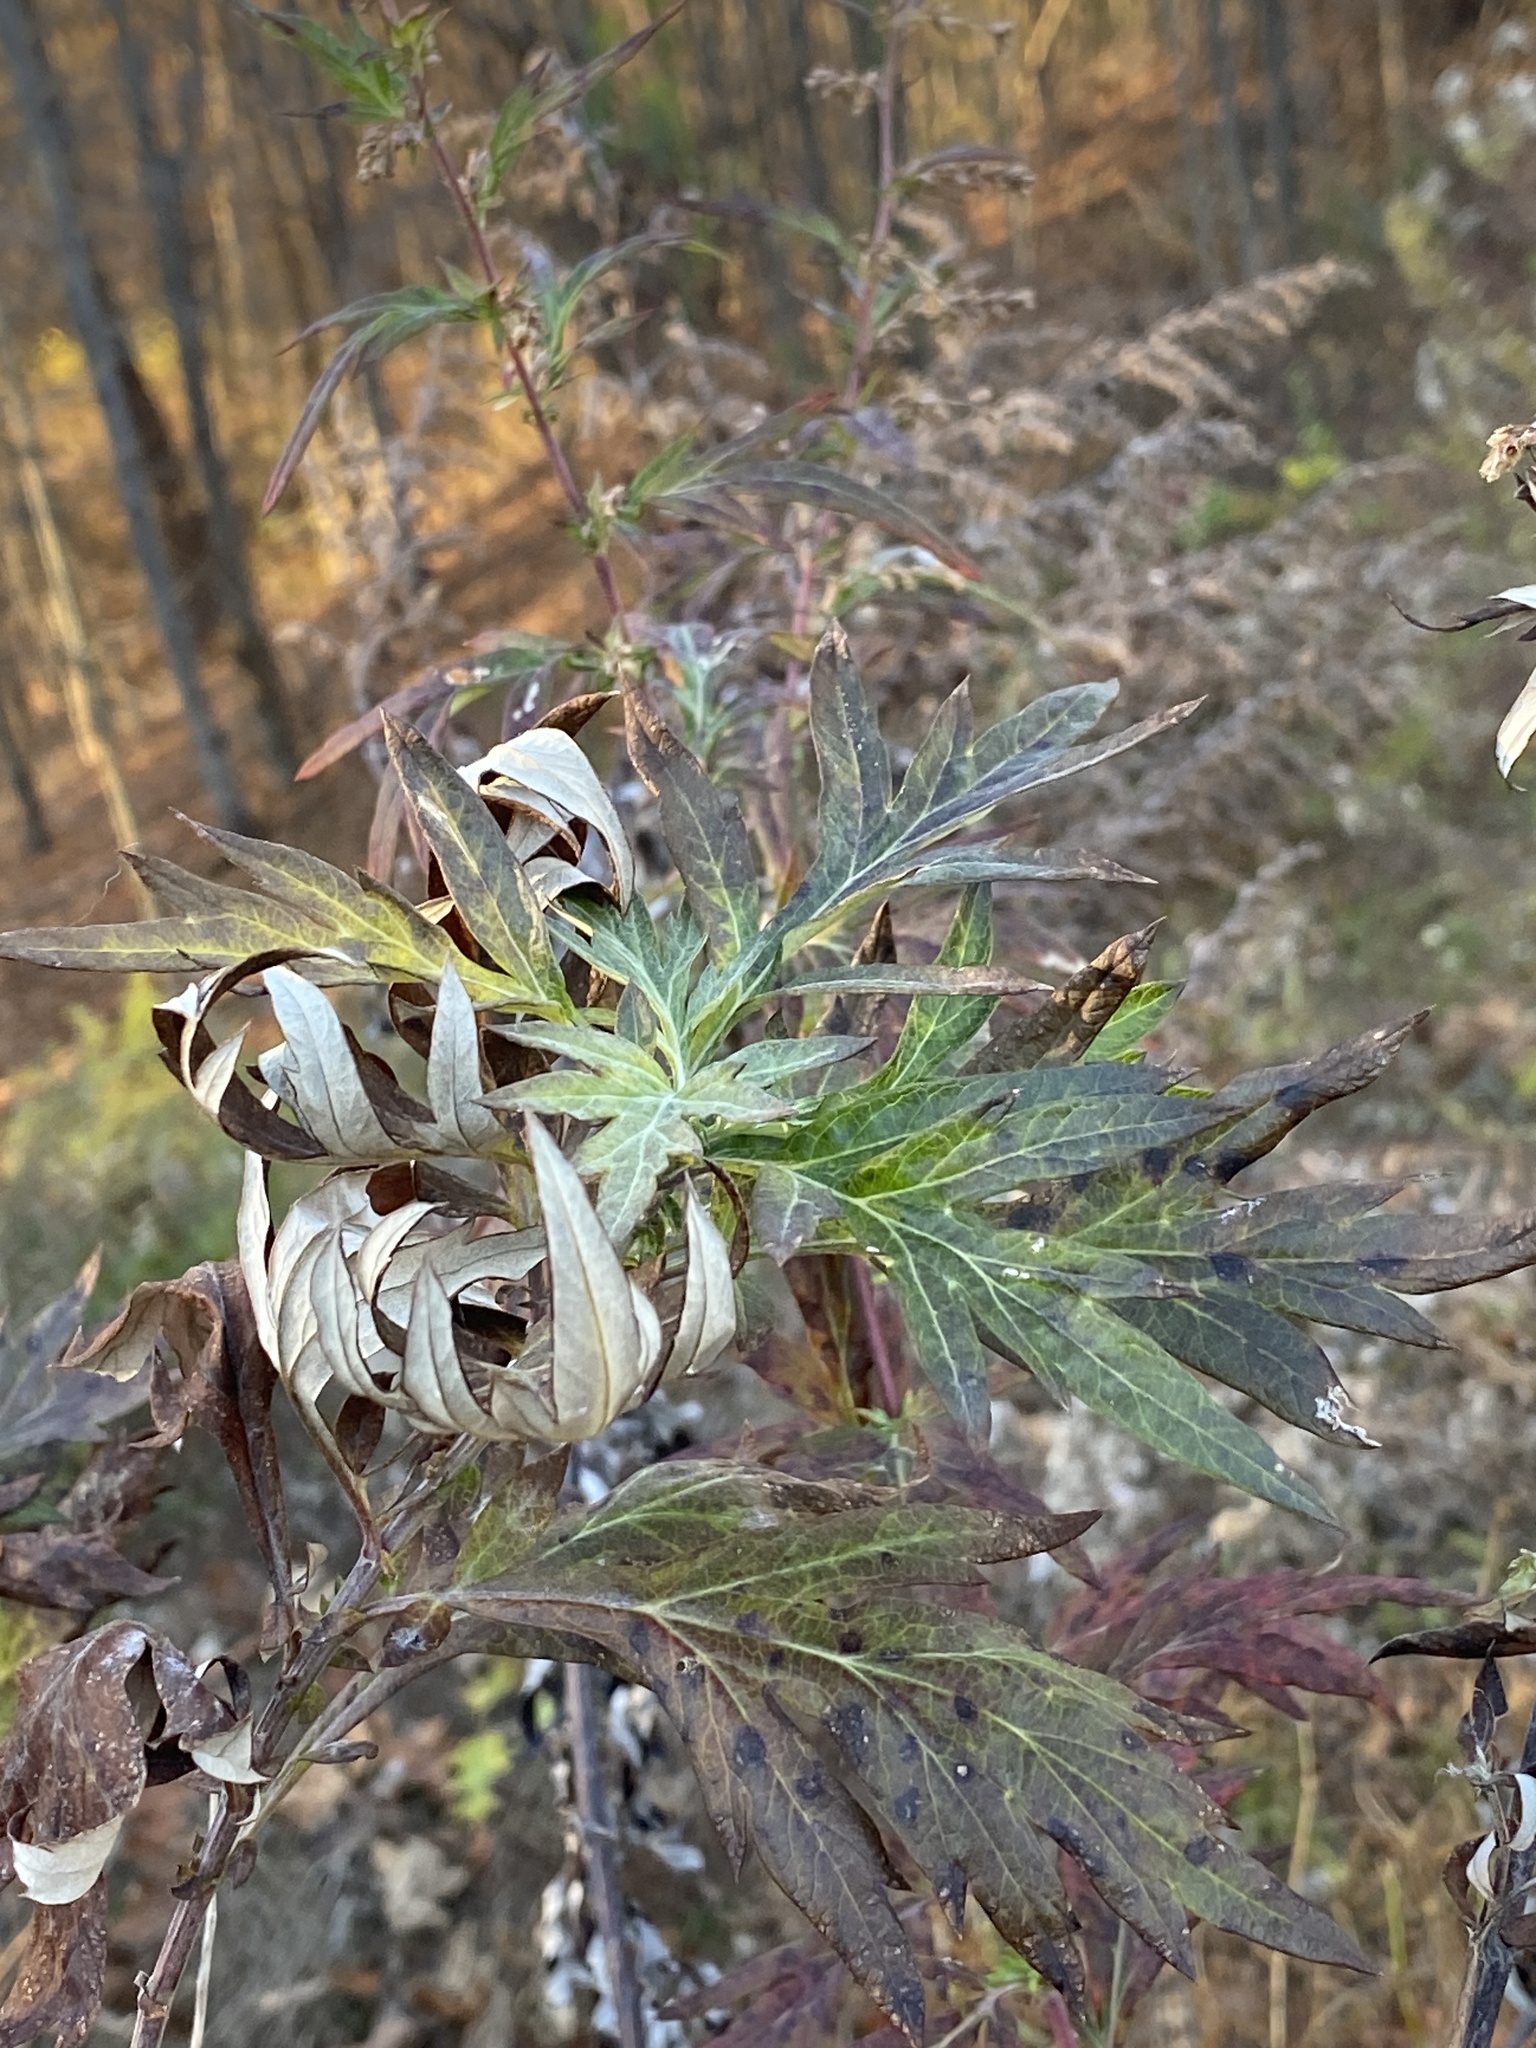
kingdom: Plantae
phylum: Tracheophyta
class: Magnoliopsida
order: Asterales
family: Asteraceae
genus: Artemisia
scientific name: Artemisia vulgaris
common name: Mugwort
